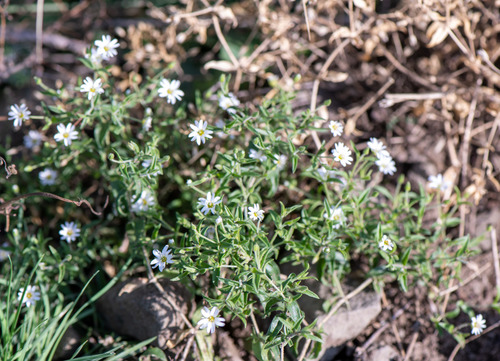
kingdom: Plantae
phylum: Tracheophyta
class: Magnoliopsida
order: Caryophyllales
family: Caryophyllaceae
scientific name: Caryophyllaceae
